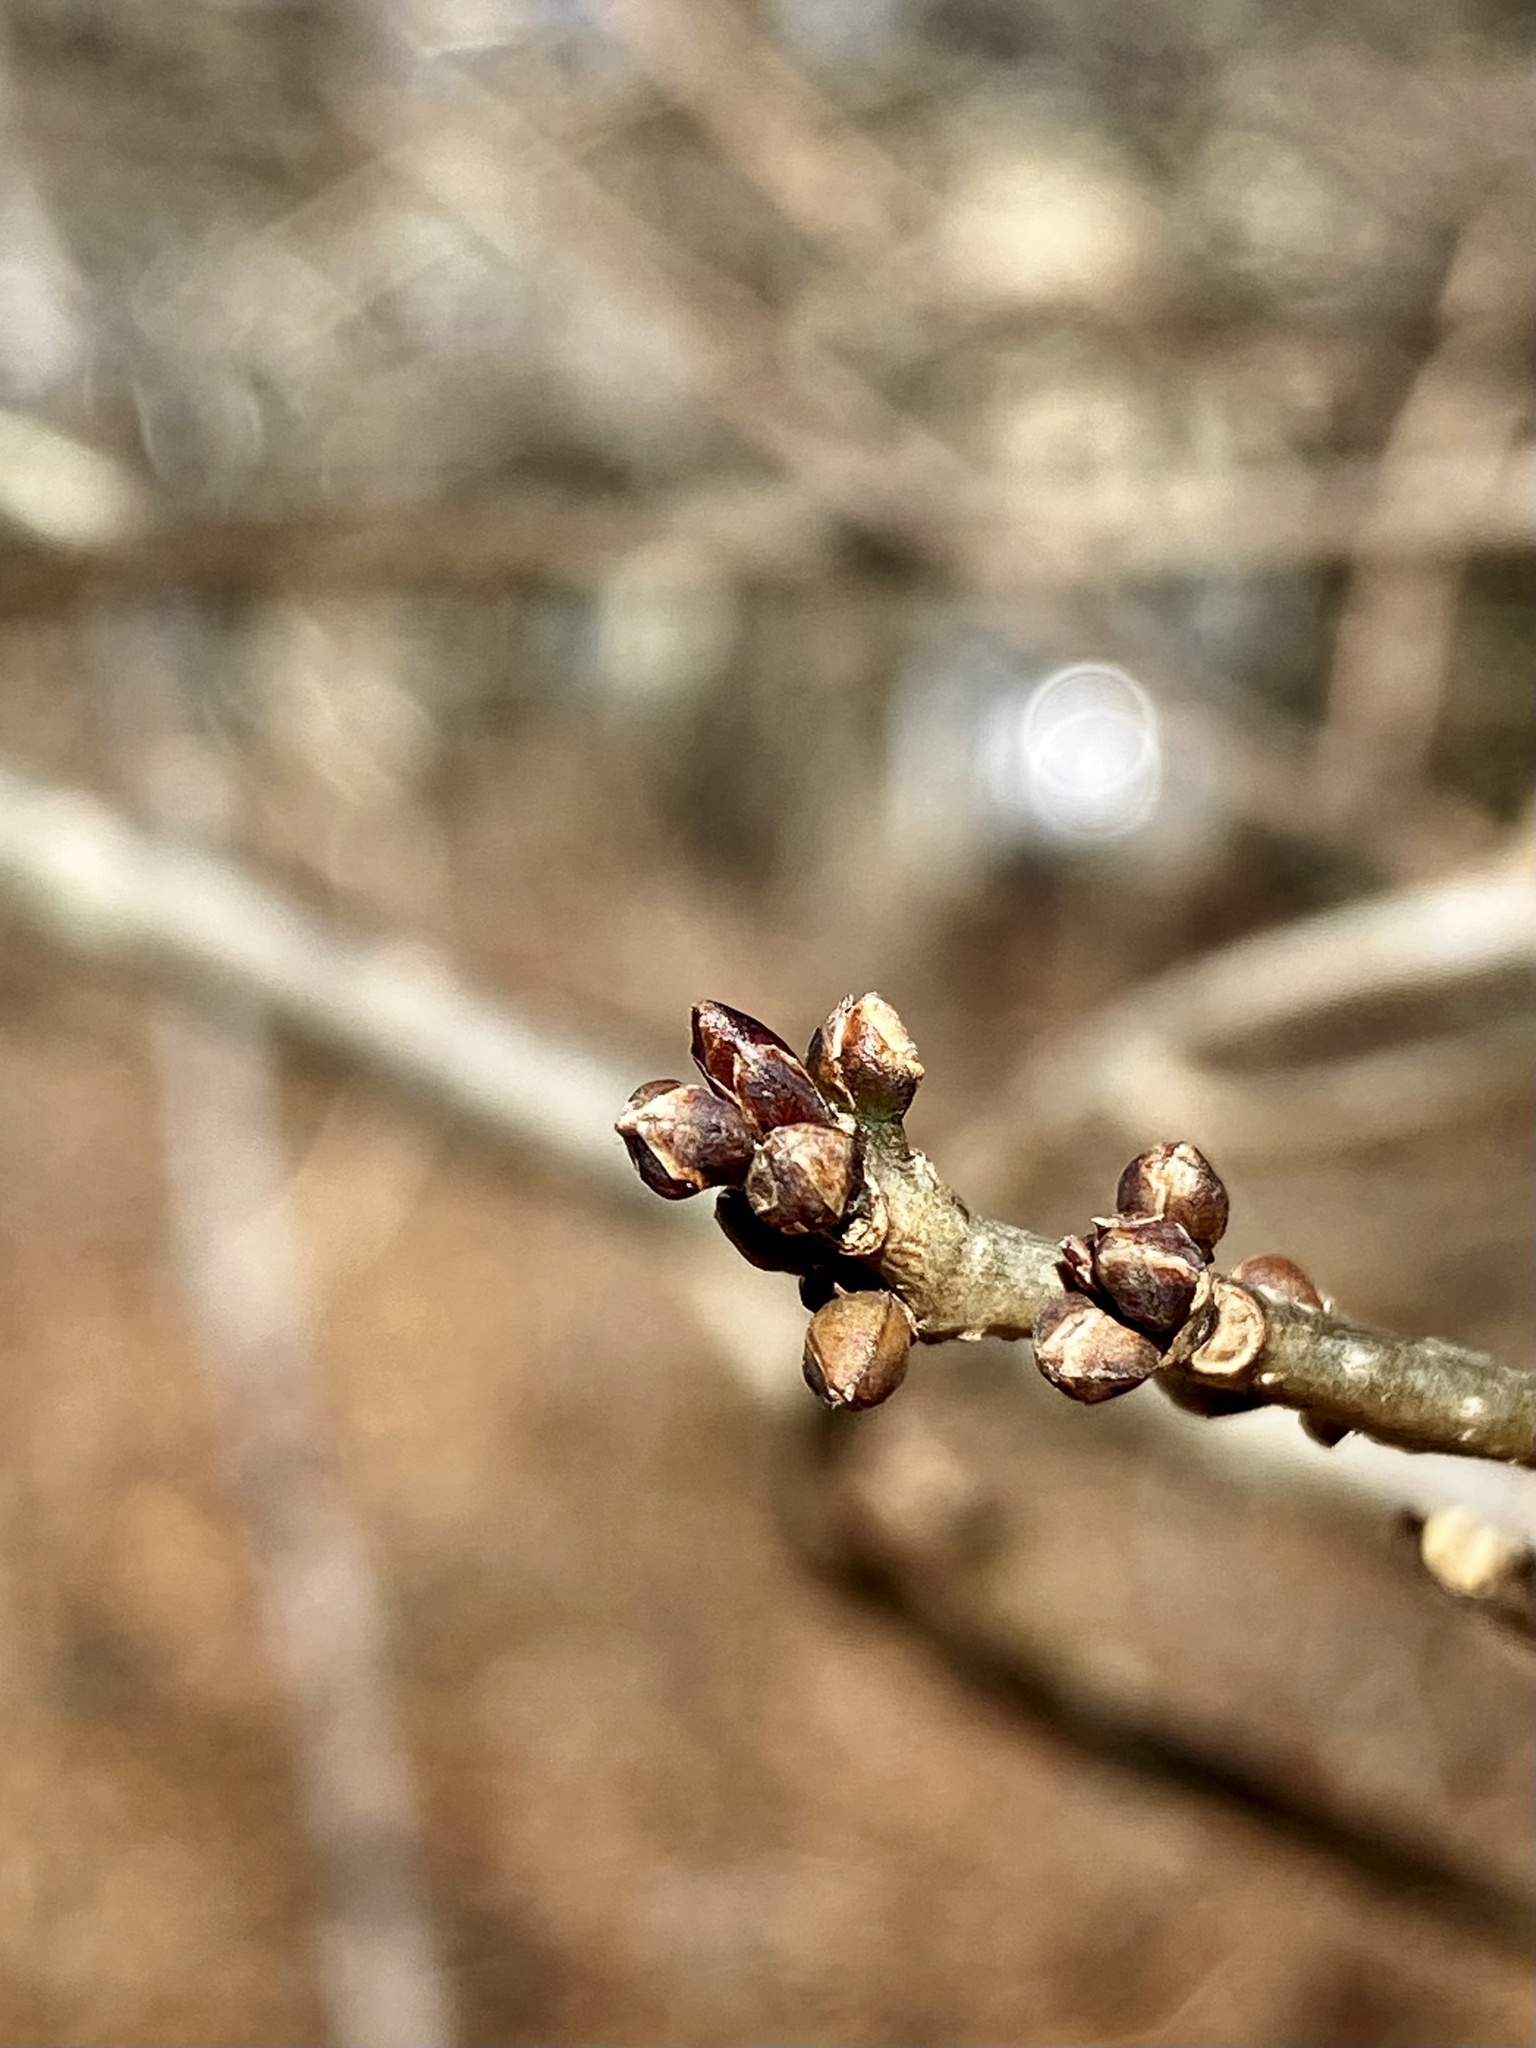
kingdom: Plantae
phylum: Tracheophyta
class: Magnoliopsida
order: Laurales
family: Lauraceae
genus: Lindera
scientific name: Lindera benzoin
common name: Spicebush
